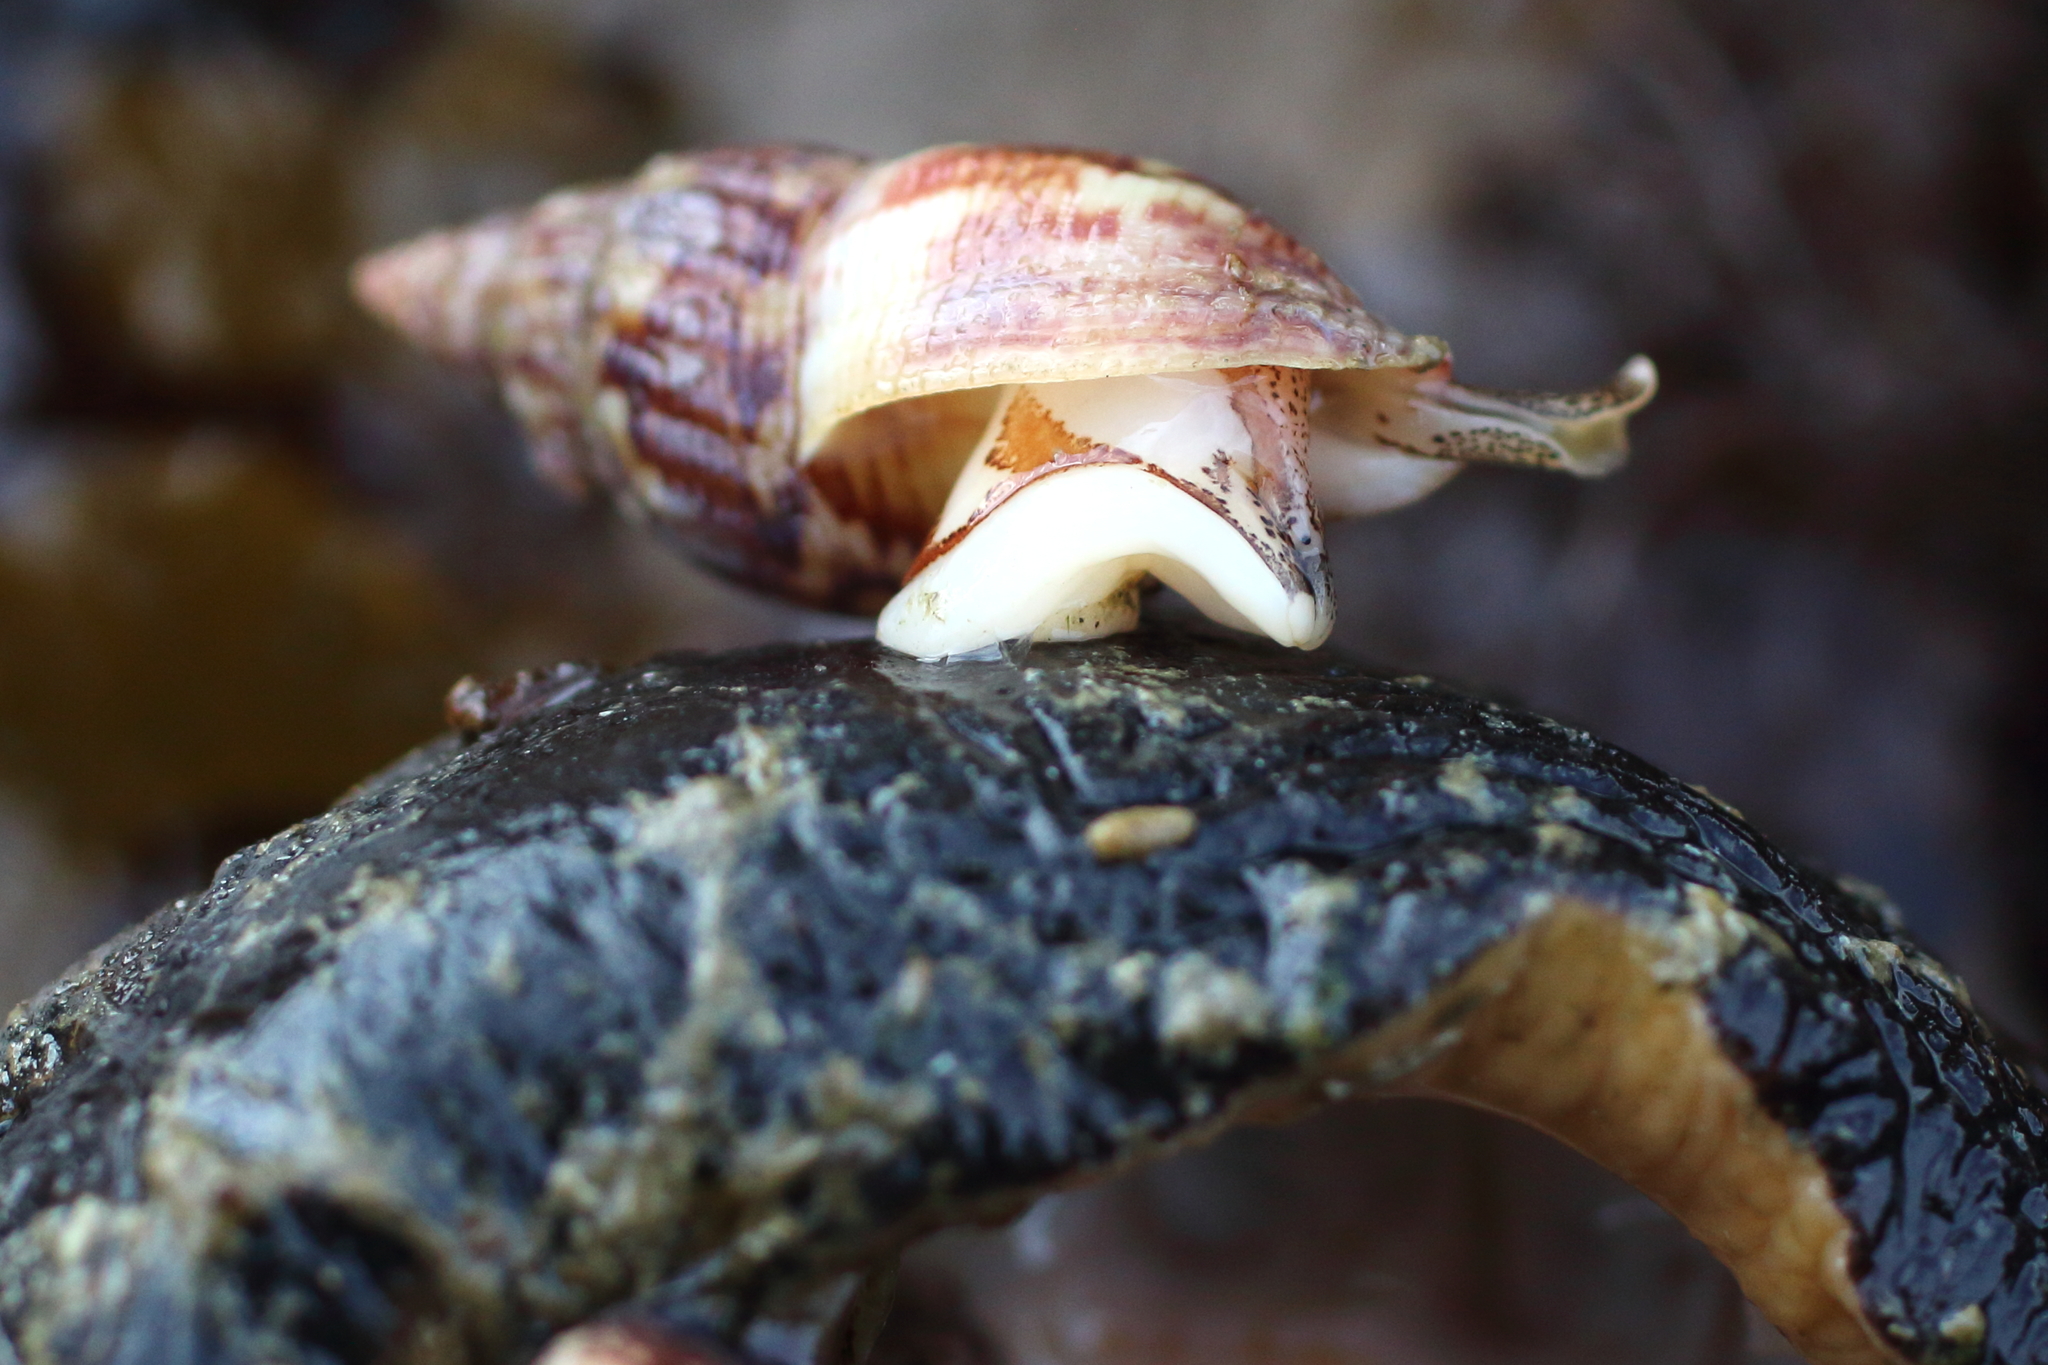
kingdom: Animalia
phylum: Mollusca
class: Gastropoda
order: Neogastropoda
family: Columbellidae
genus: Amphissa
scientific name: Amphissa columbiana
